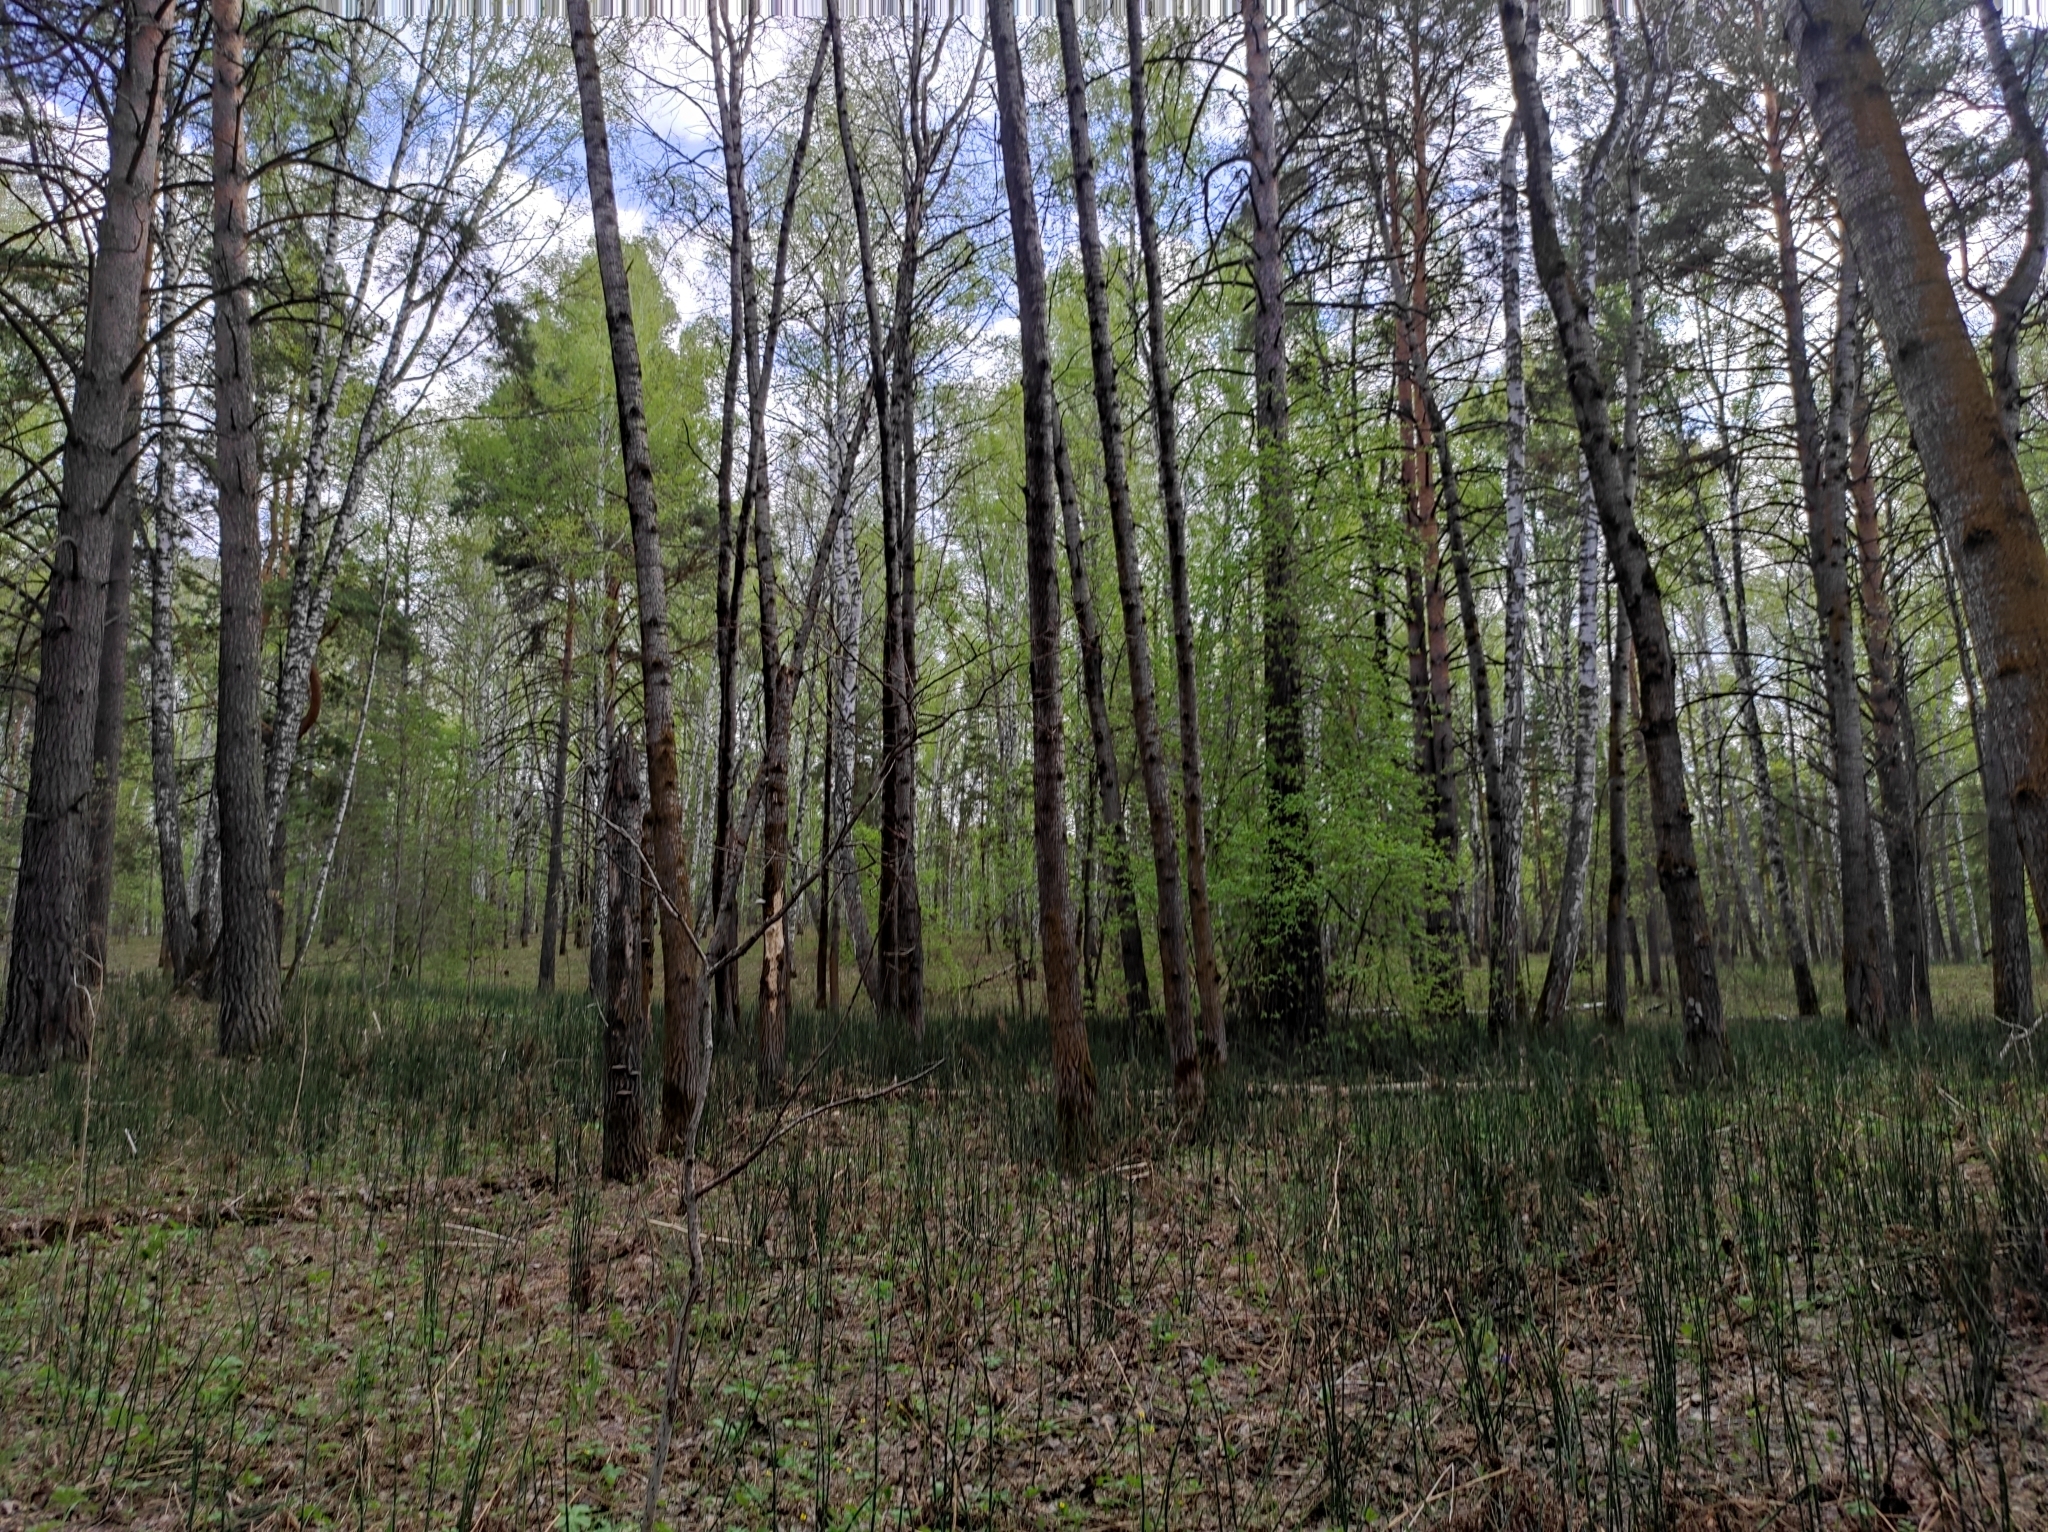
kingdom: Plantae
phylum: Tracheophyta
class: Pinopsida
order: Pinales
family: Pinaceae
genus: Pinus
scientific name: Pinus sylvestris
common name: Scots pine
